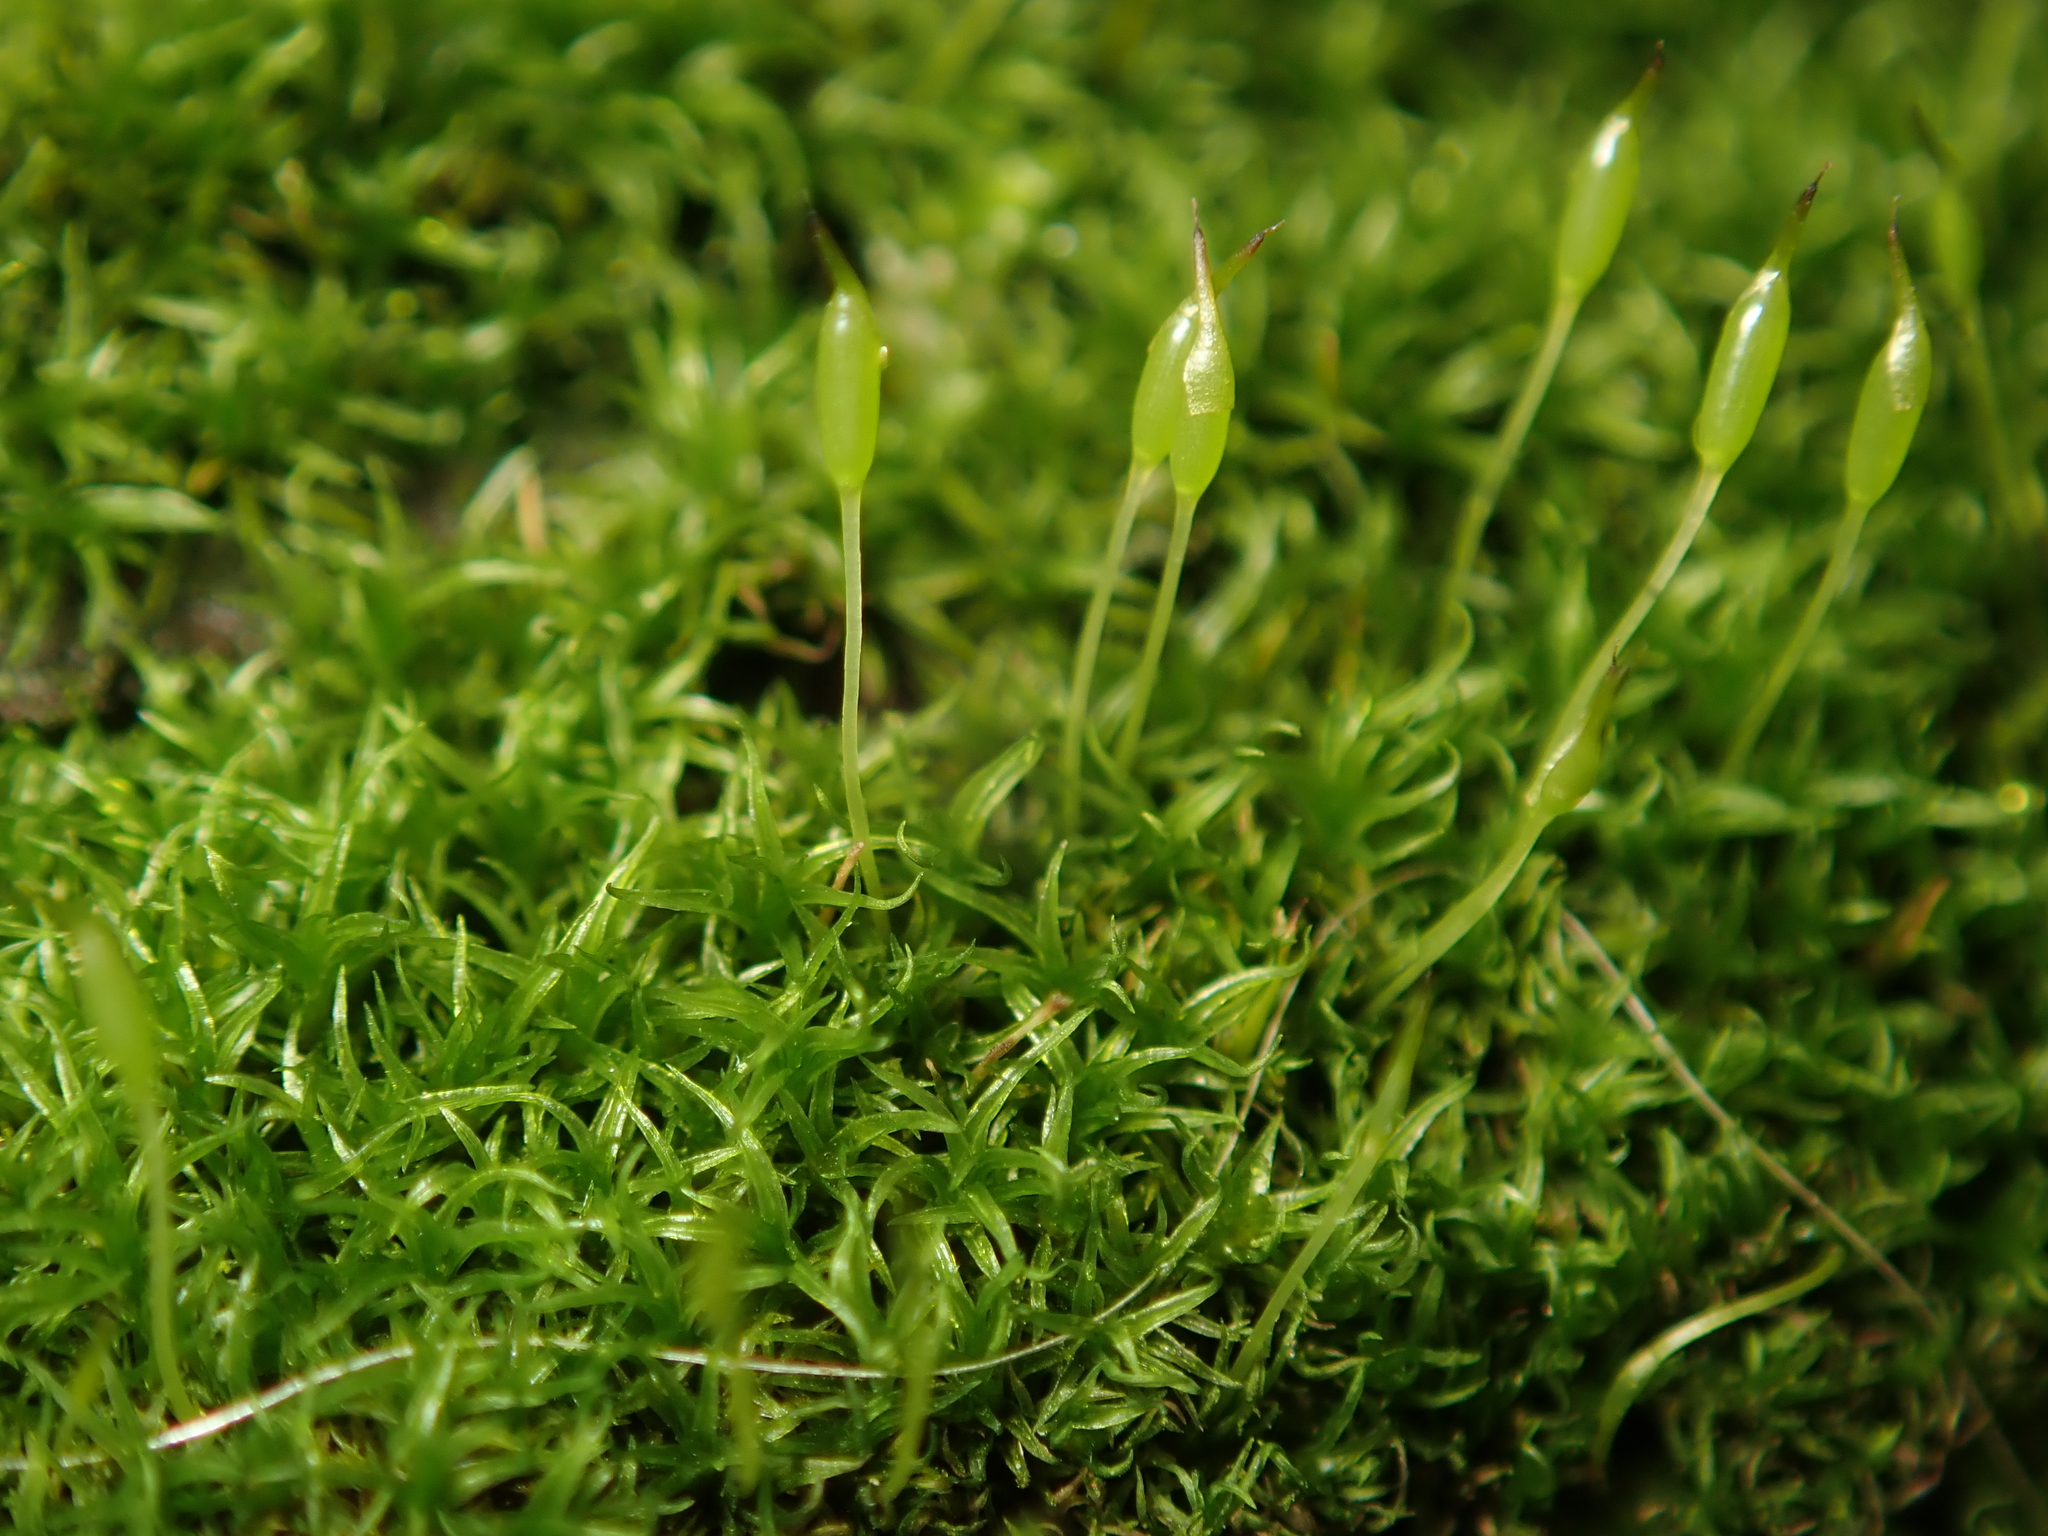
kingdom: Plantae
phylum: Bryophyta
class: Bryopsida
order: Dicranales
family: Rhabdoweisiaceae
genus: Dicranoweisia
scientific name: Dicranoweisia cirrata
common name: Common pincushion
